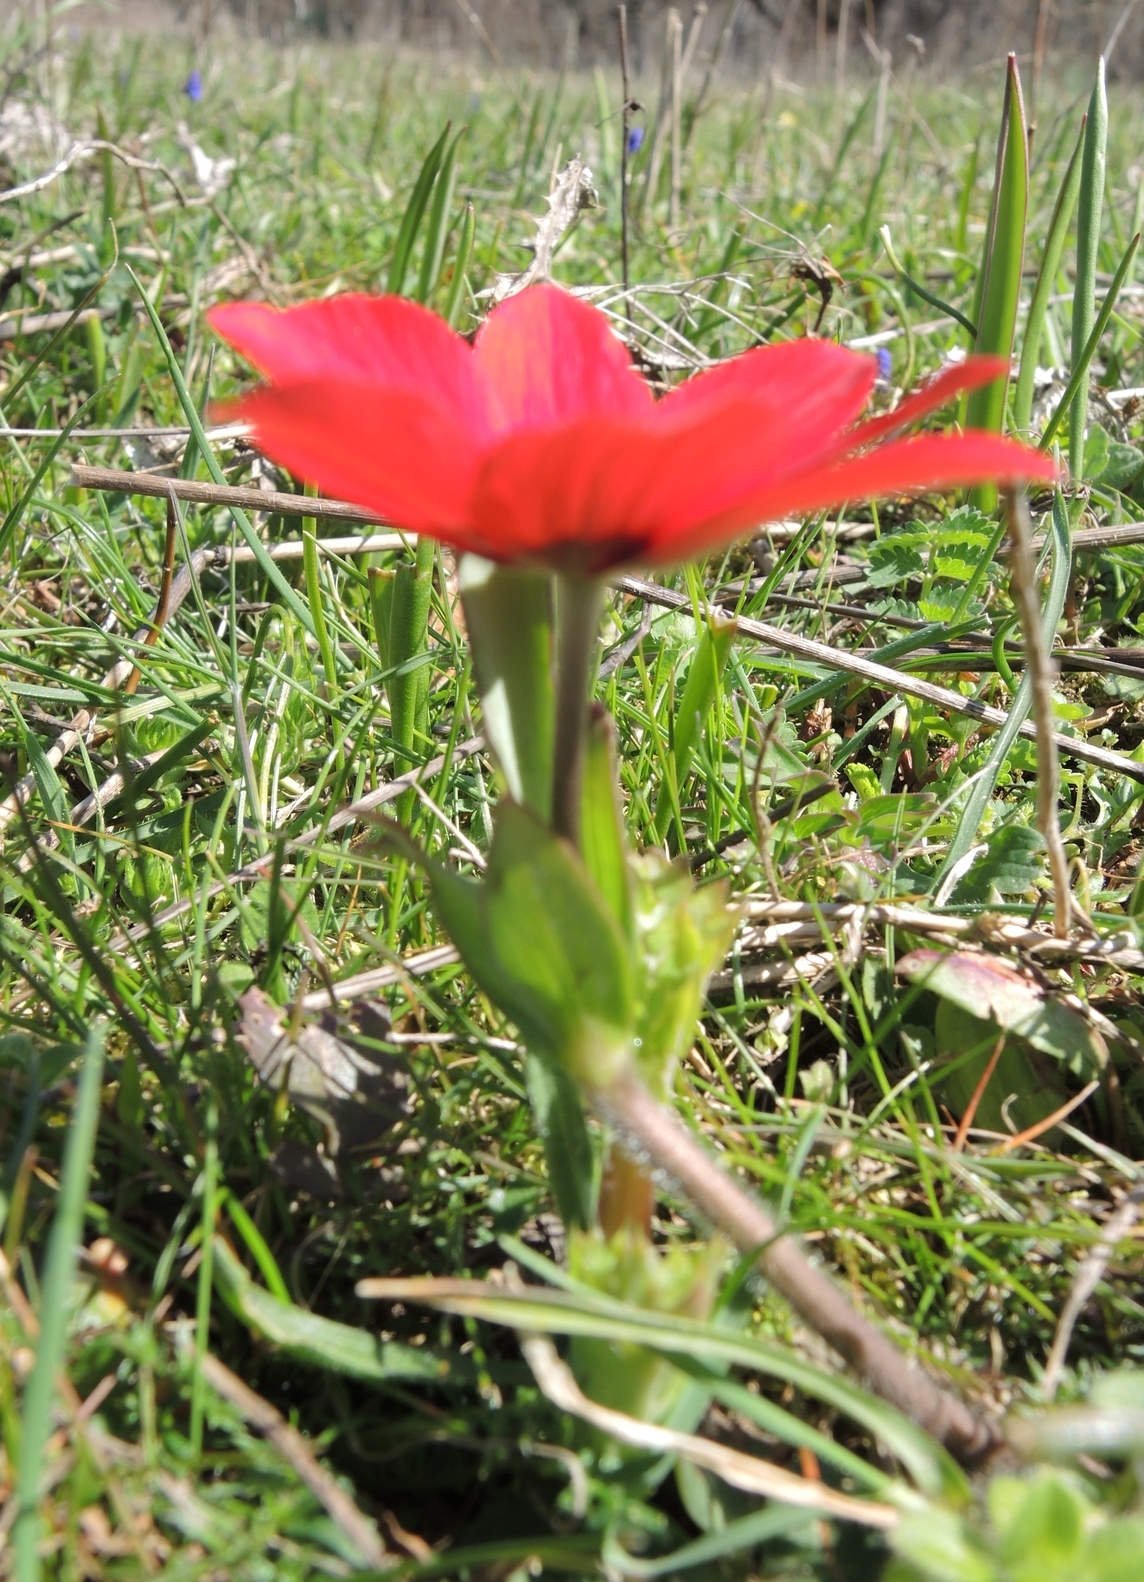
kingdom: Plantae
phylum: Tracheophyta
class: Magnoliopsida
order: Ranunculales
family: Ranunculaceae
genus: Anemone
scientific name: Anemone pavonina
